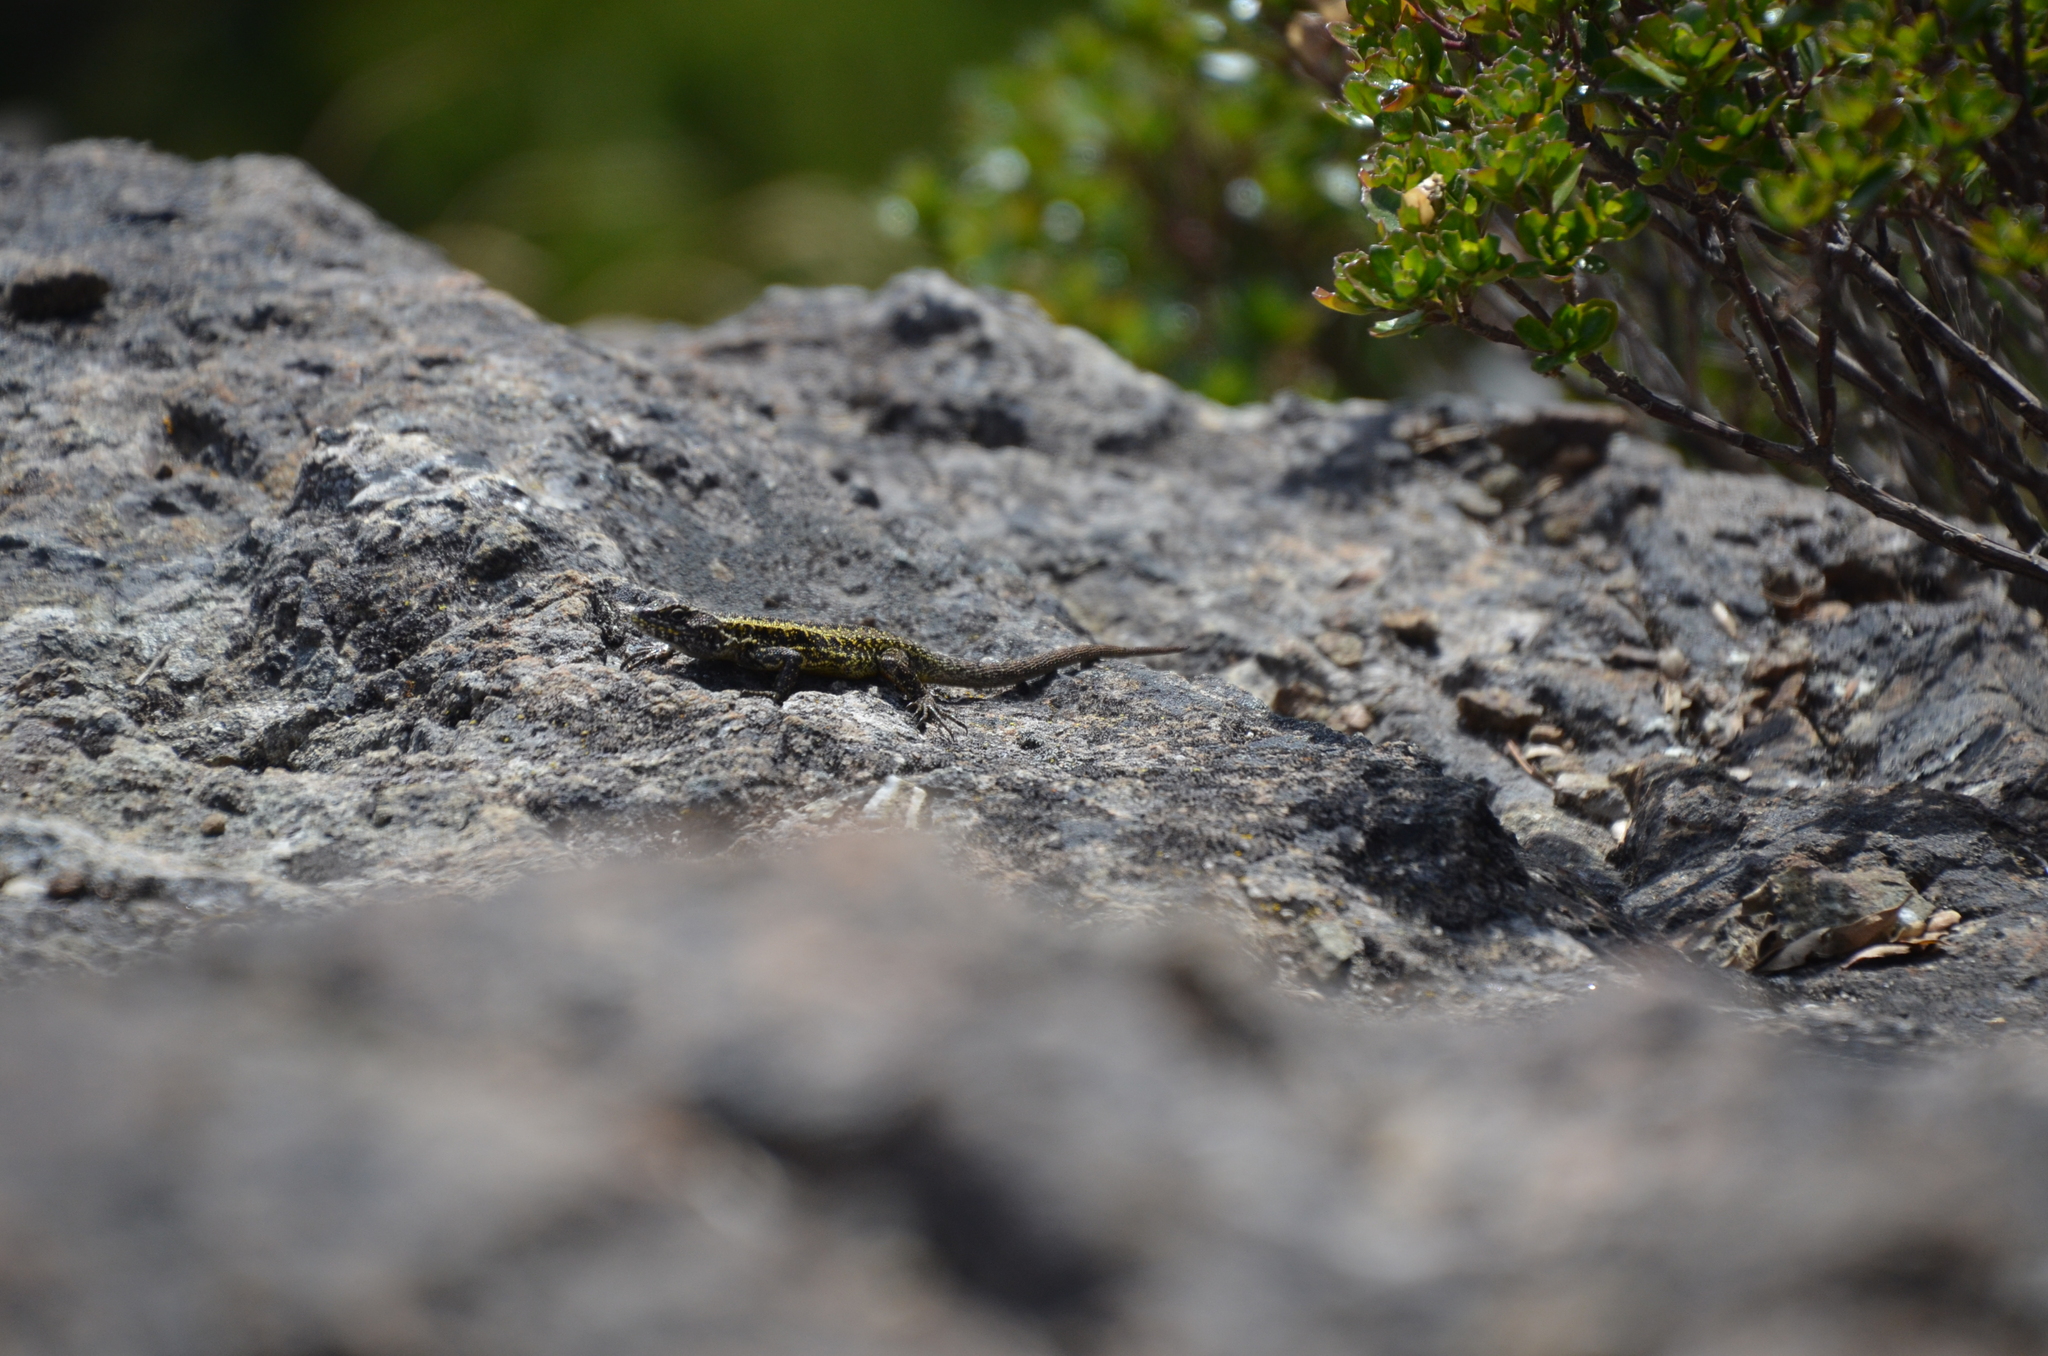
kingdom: Animalia
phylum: Chordata
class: Squamata
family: Liolaemidae
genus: Liolaemus
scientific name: Liolaemus pictus
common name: Painted tree iguana
